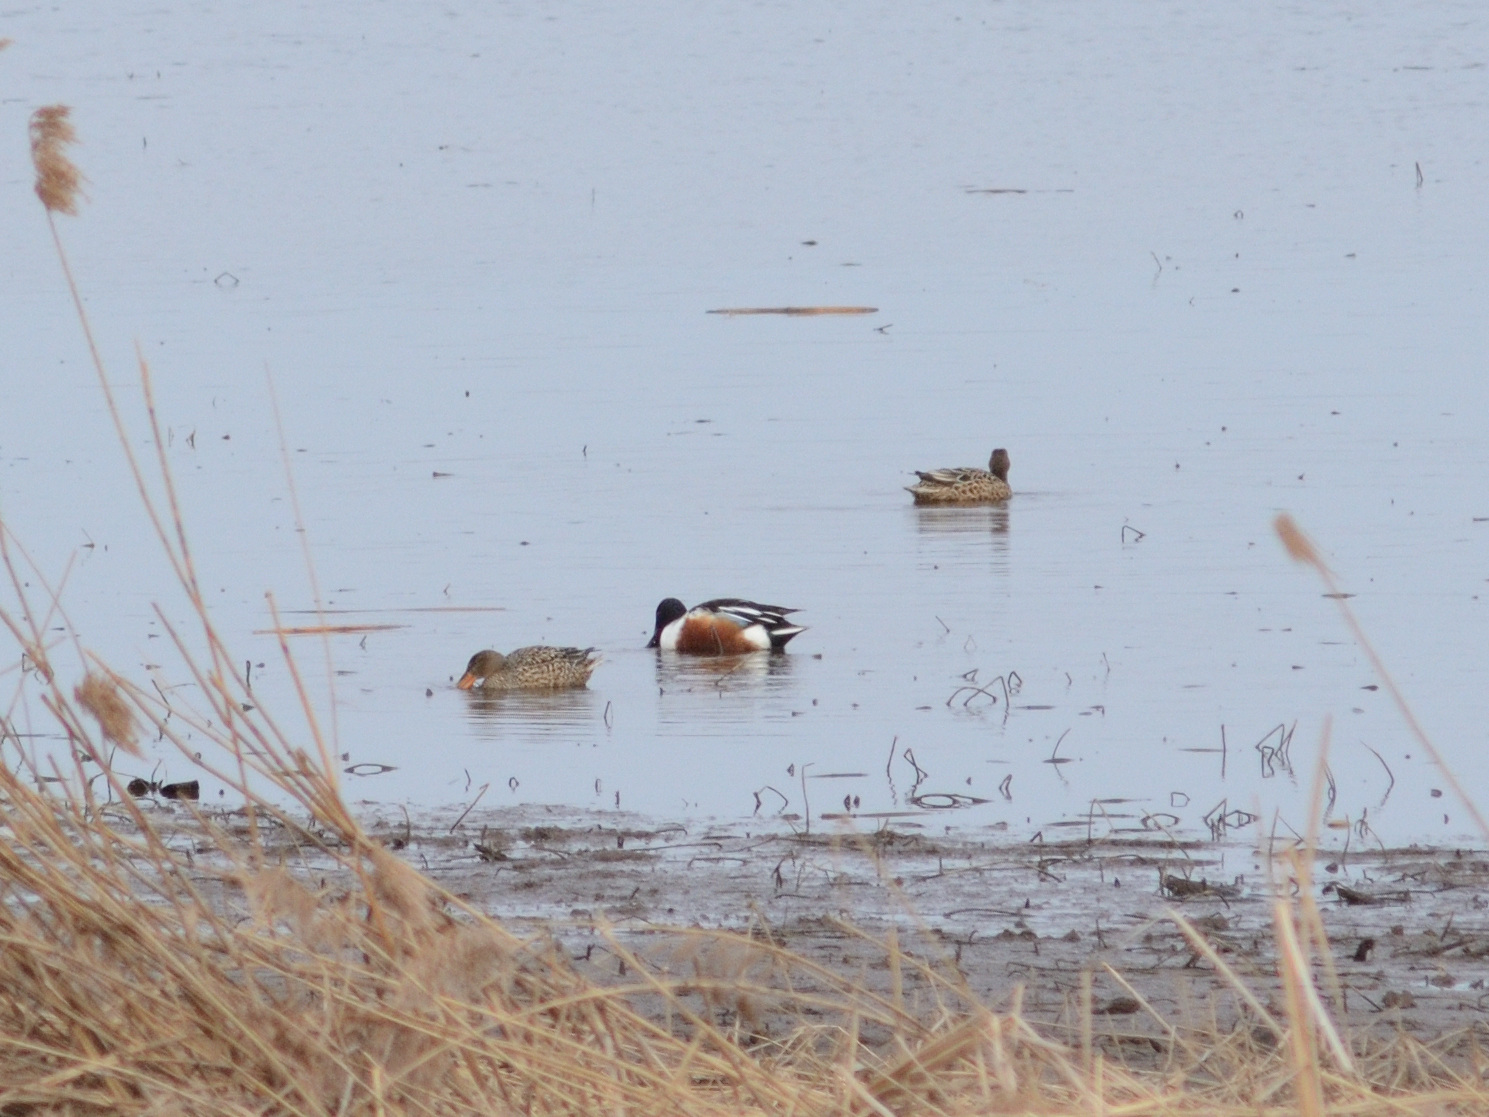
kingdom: Animalia
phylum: Chordata
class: Aves
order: Anseriformes
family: Anatidae
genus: Spatula
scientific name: Spatula clypeata
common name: Northern shoveler
